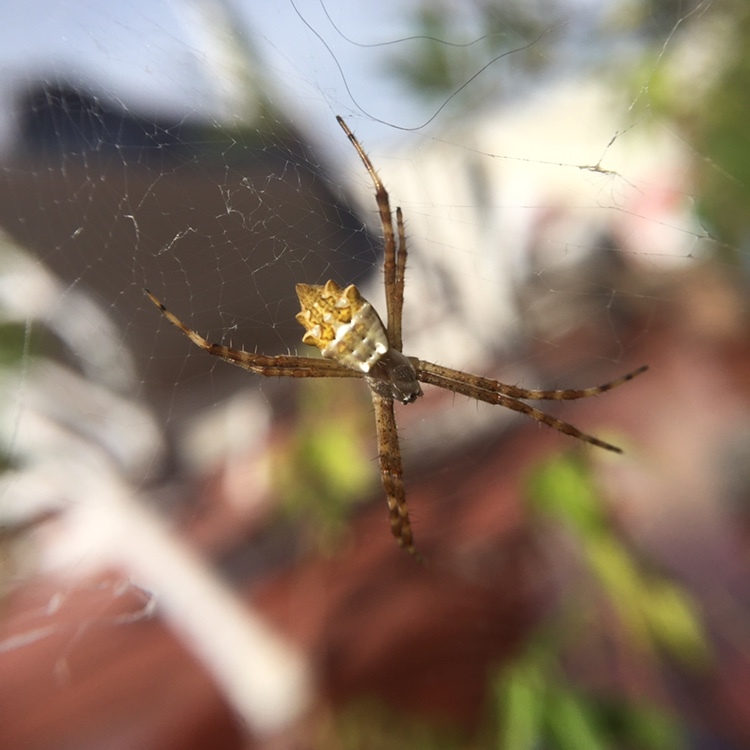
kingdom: Animalia
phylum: Arthropoda
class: Arachnida
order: Araneae
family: Araneidae
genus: Argiope
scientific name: Argiope argentata
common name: Orb weavers
